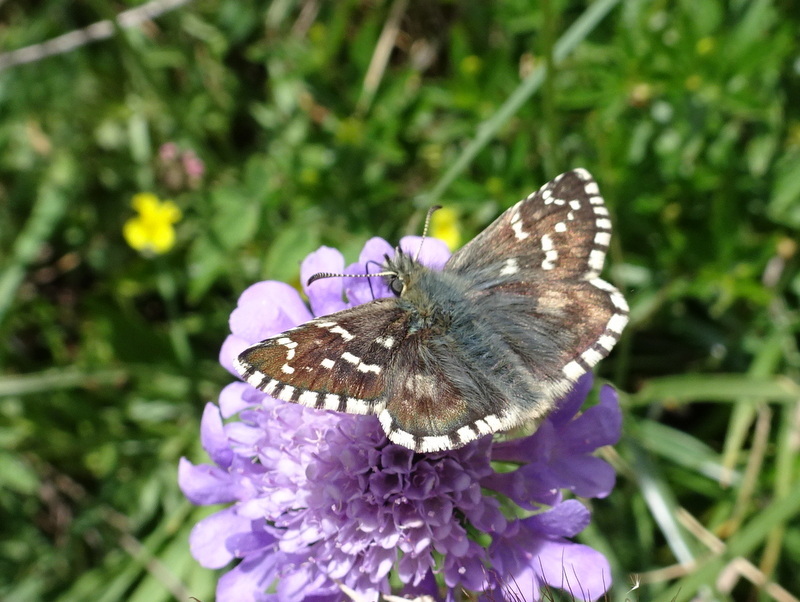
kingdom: Animalia
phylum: Arthropoda
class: Insecta
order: Lepidoptera
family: Hesperiidae
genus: Pyrgus
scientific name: Pyrgus carlinae
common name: Carline skipper
